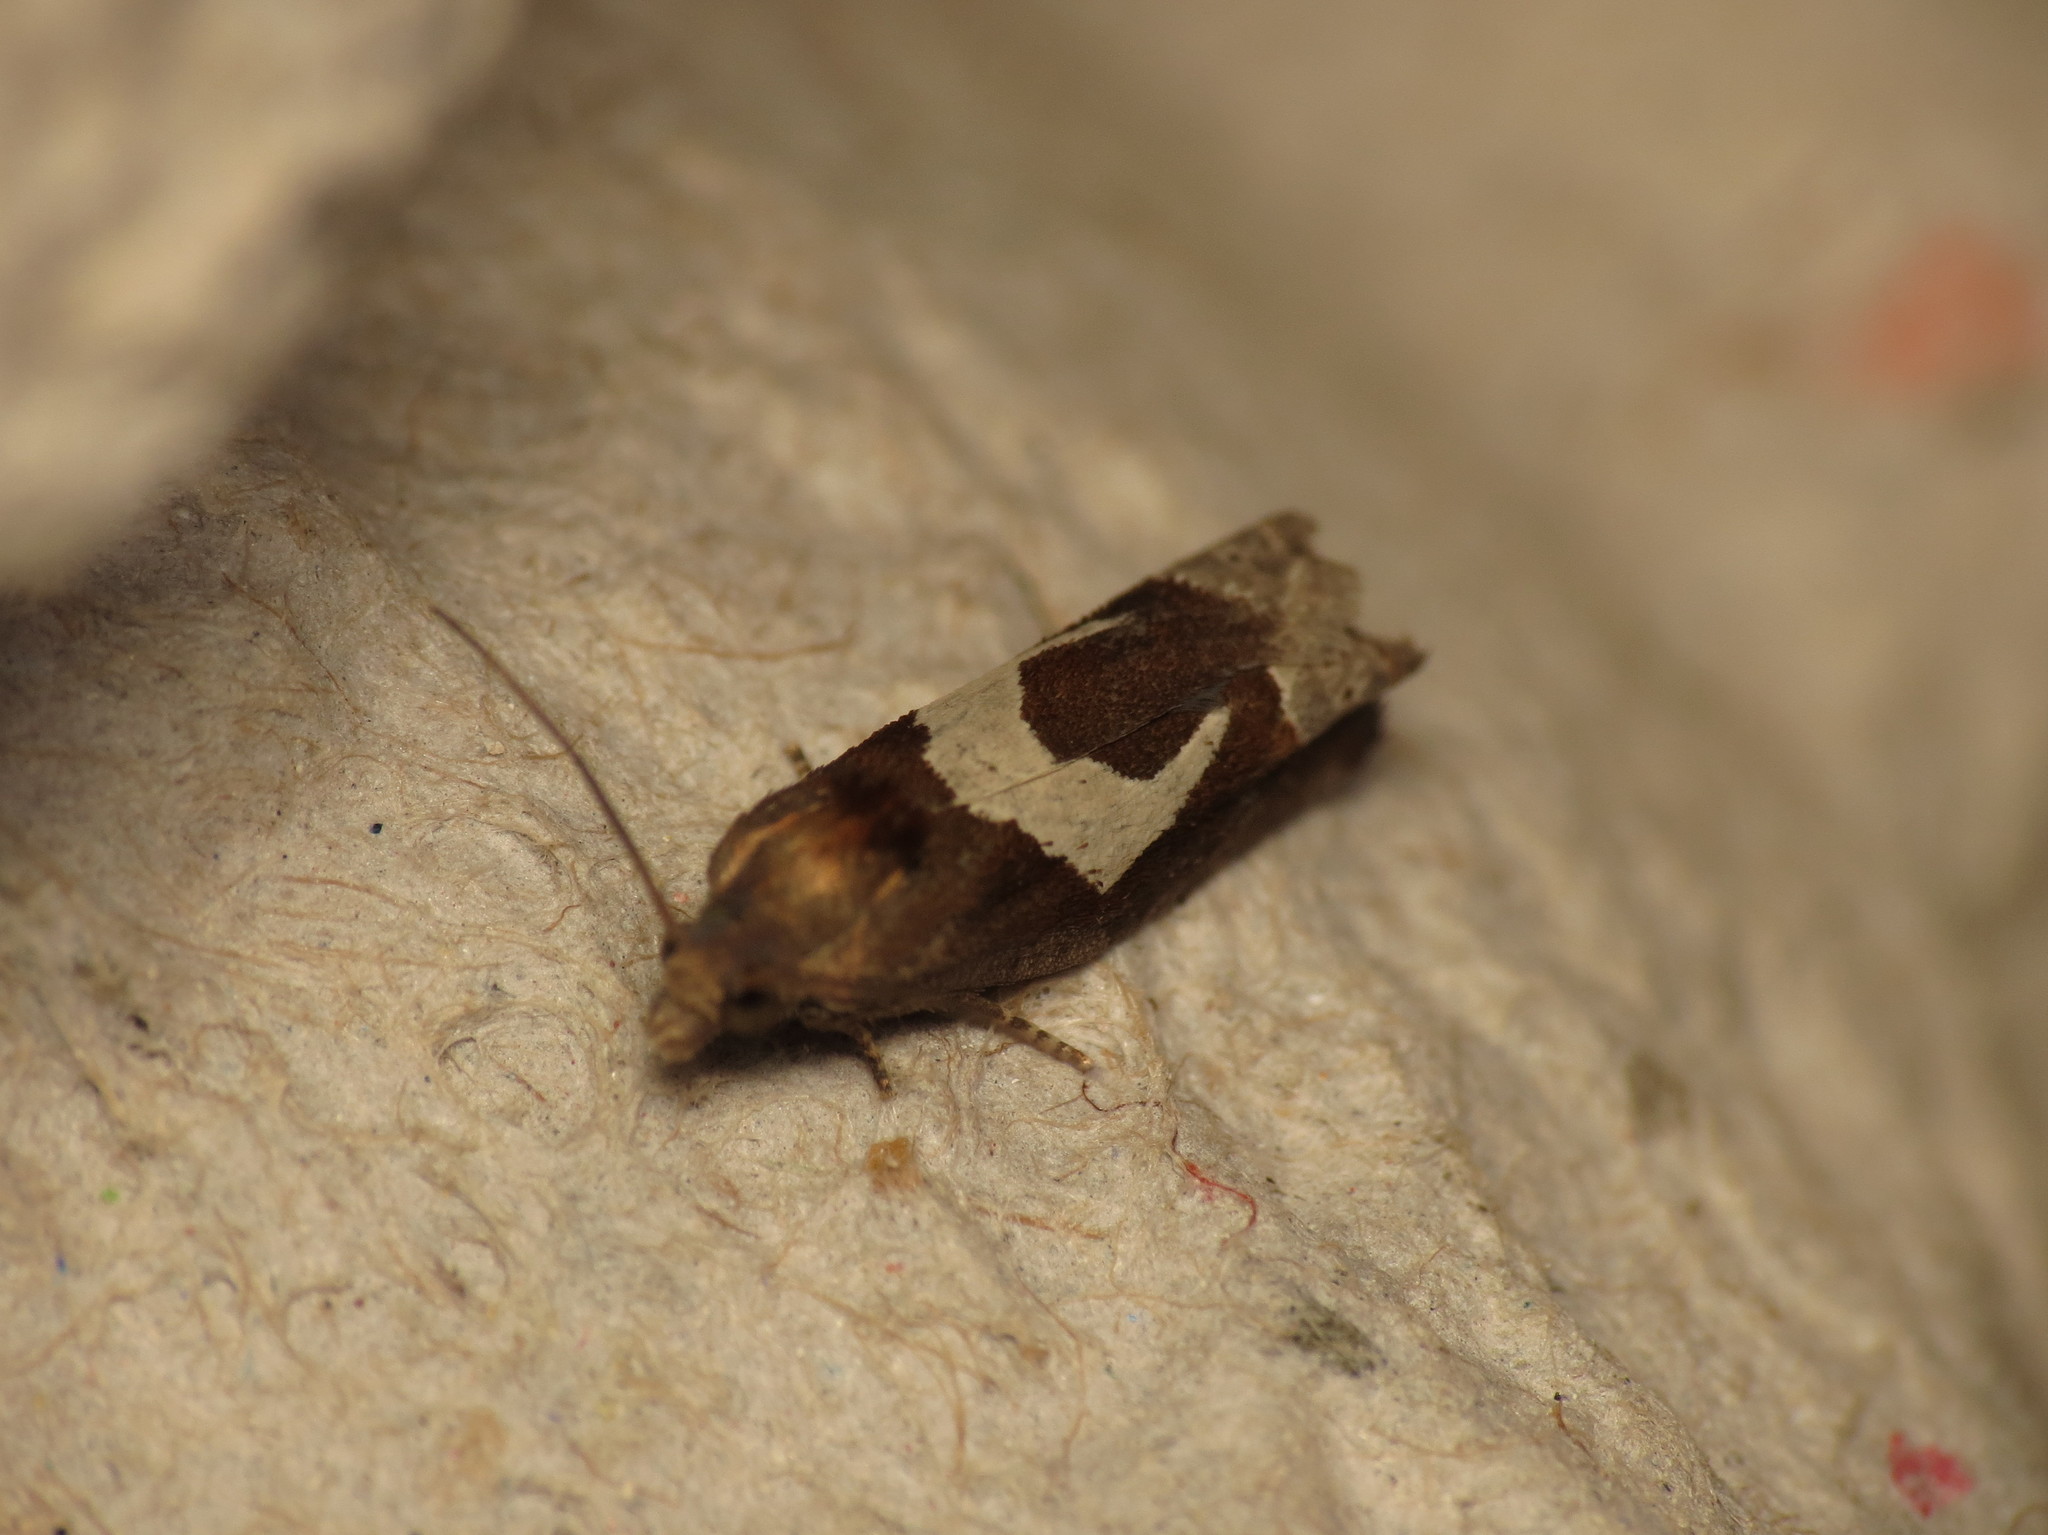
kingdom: Animalia
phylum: Arthropoda
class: Insecta
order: Lepidoptera
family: Tortricidae
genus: Epiblema
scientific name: Epiblema foenella
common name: White-foot bell
